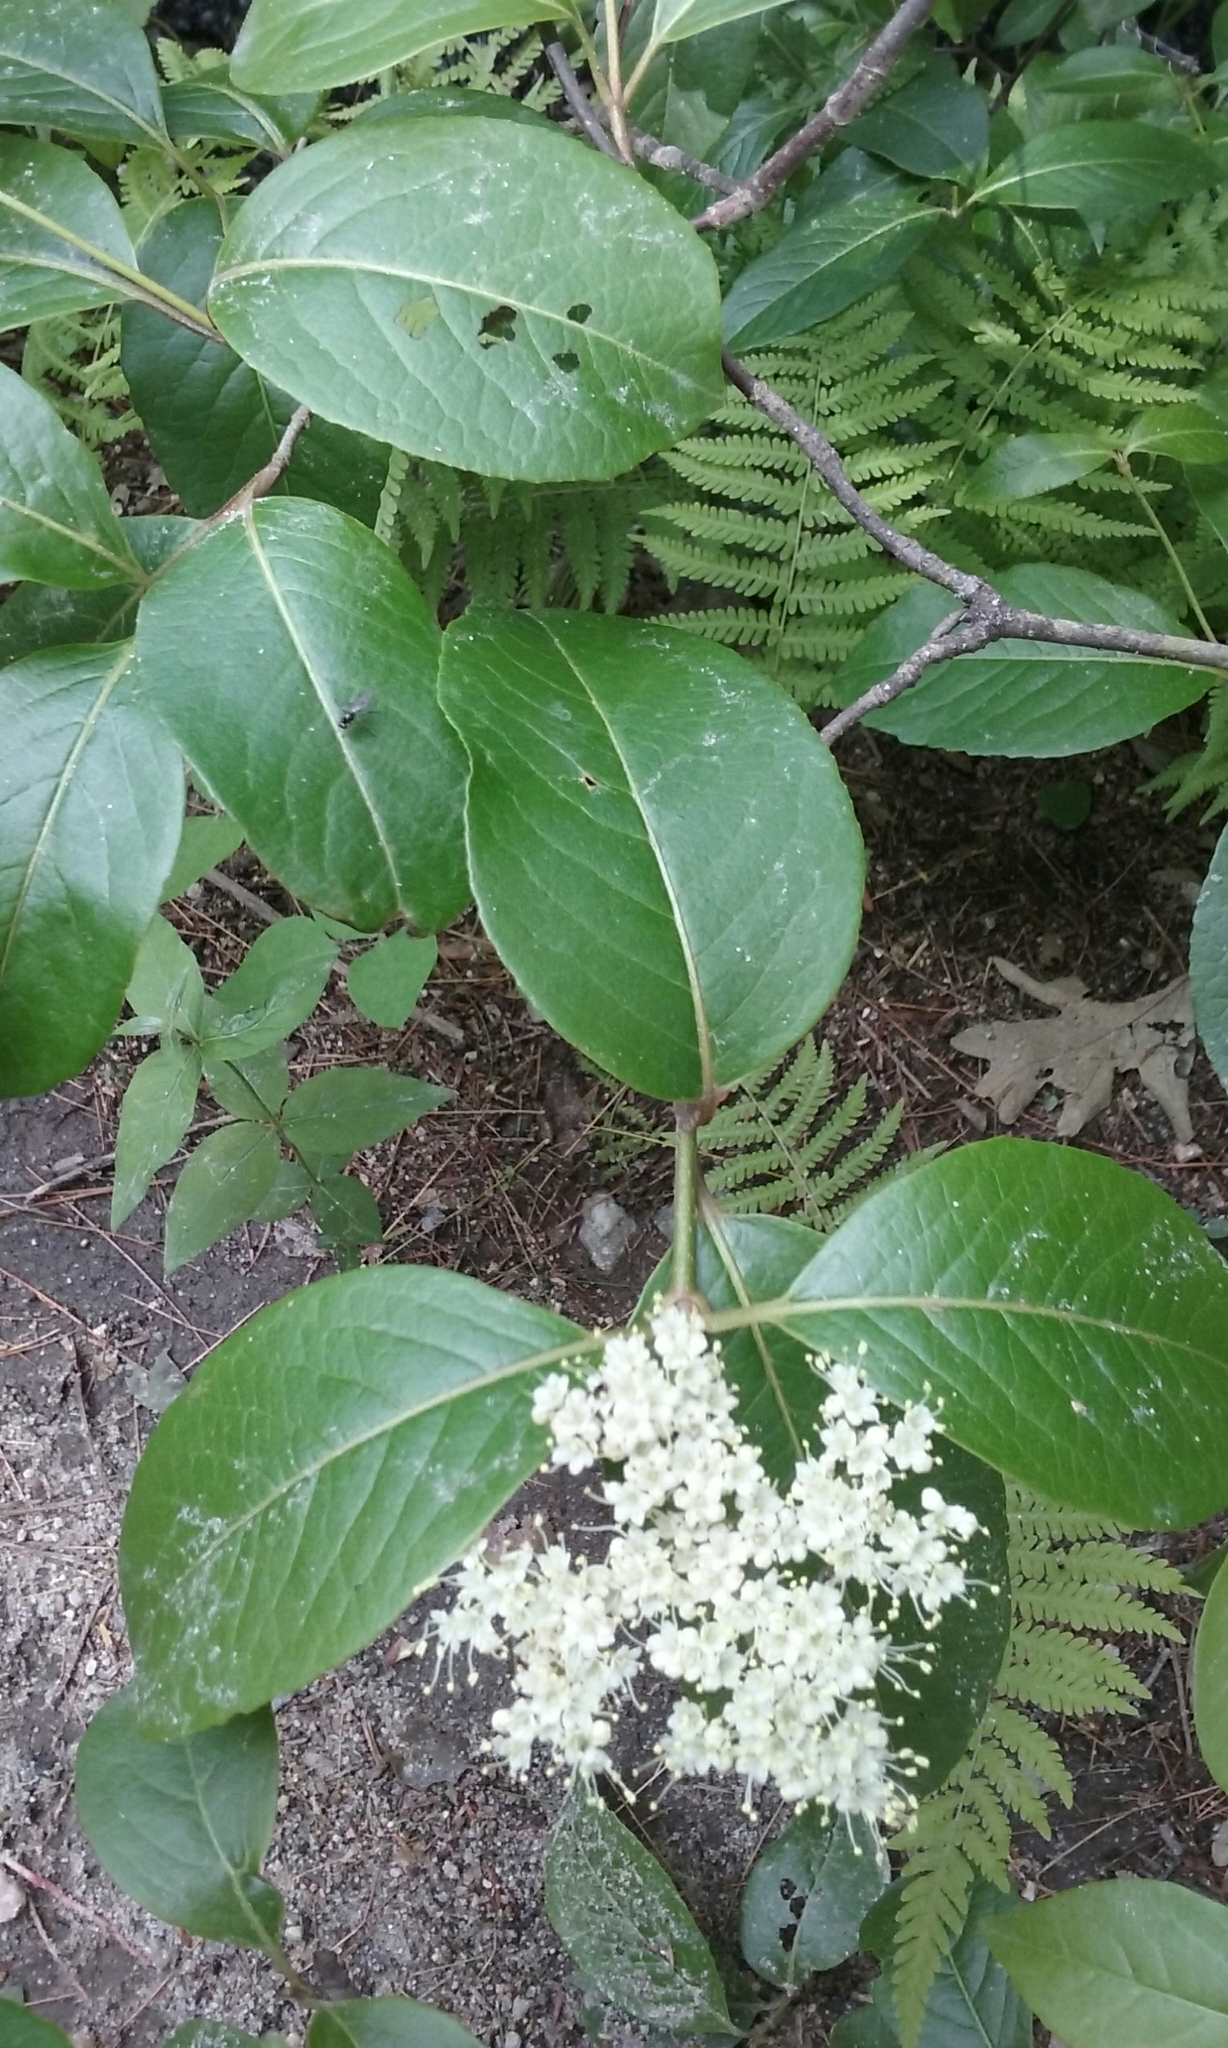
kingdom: Plantae
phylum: Tracheophyta
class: Magnoliopsida
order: Dipsacales
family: Viburnaceae
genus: Viburnum
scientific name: Viburnum cassinoides
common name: Swamp haw
